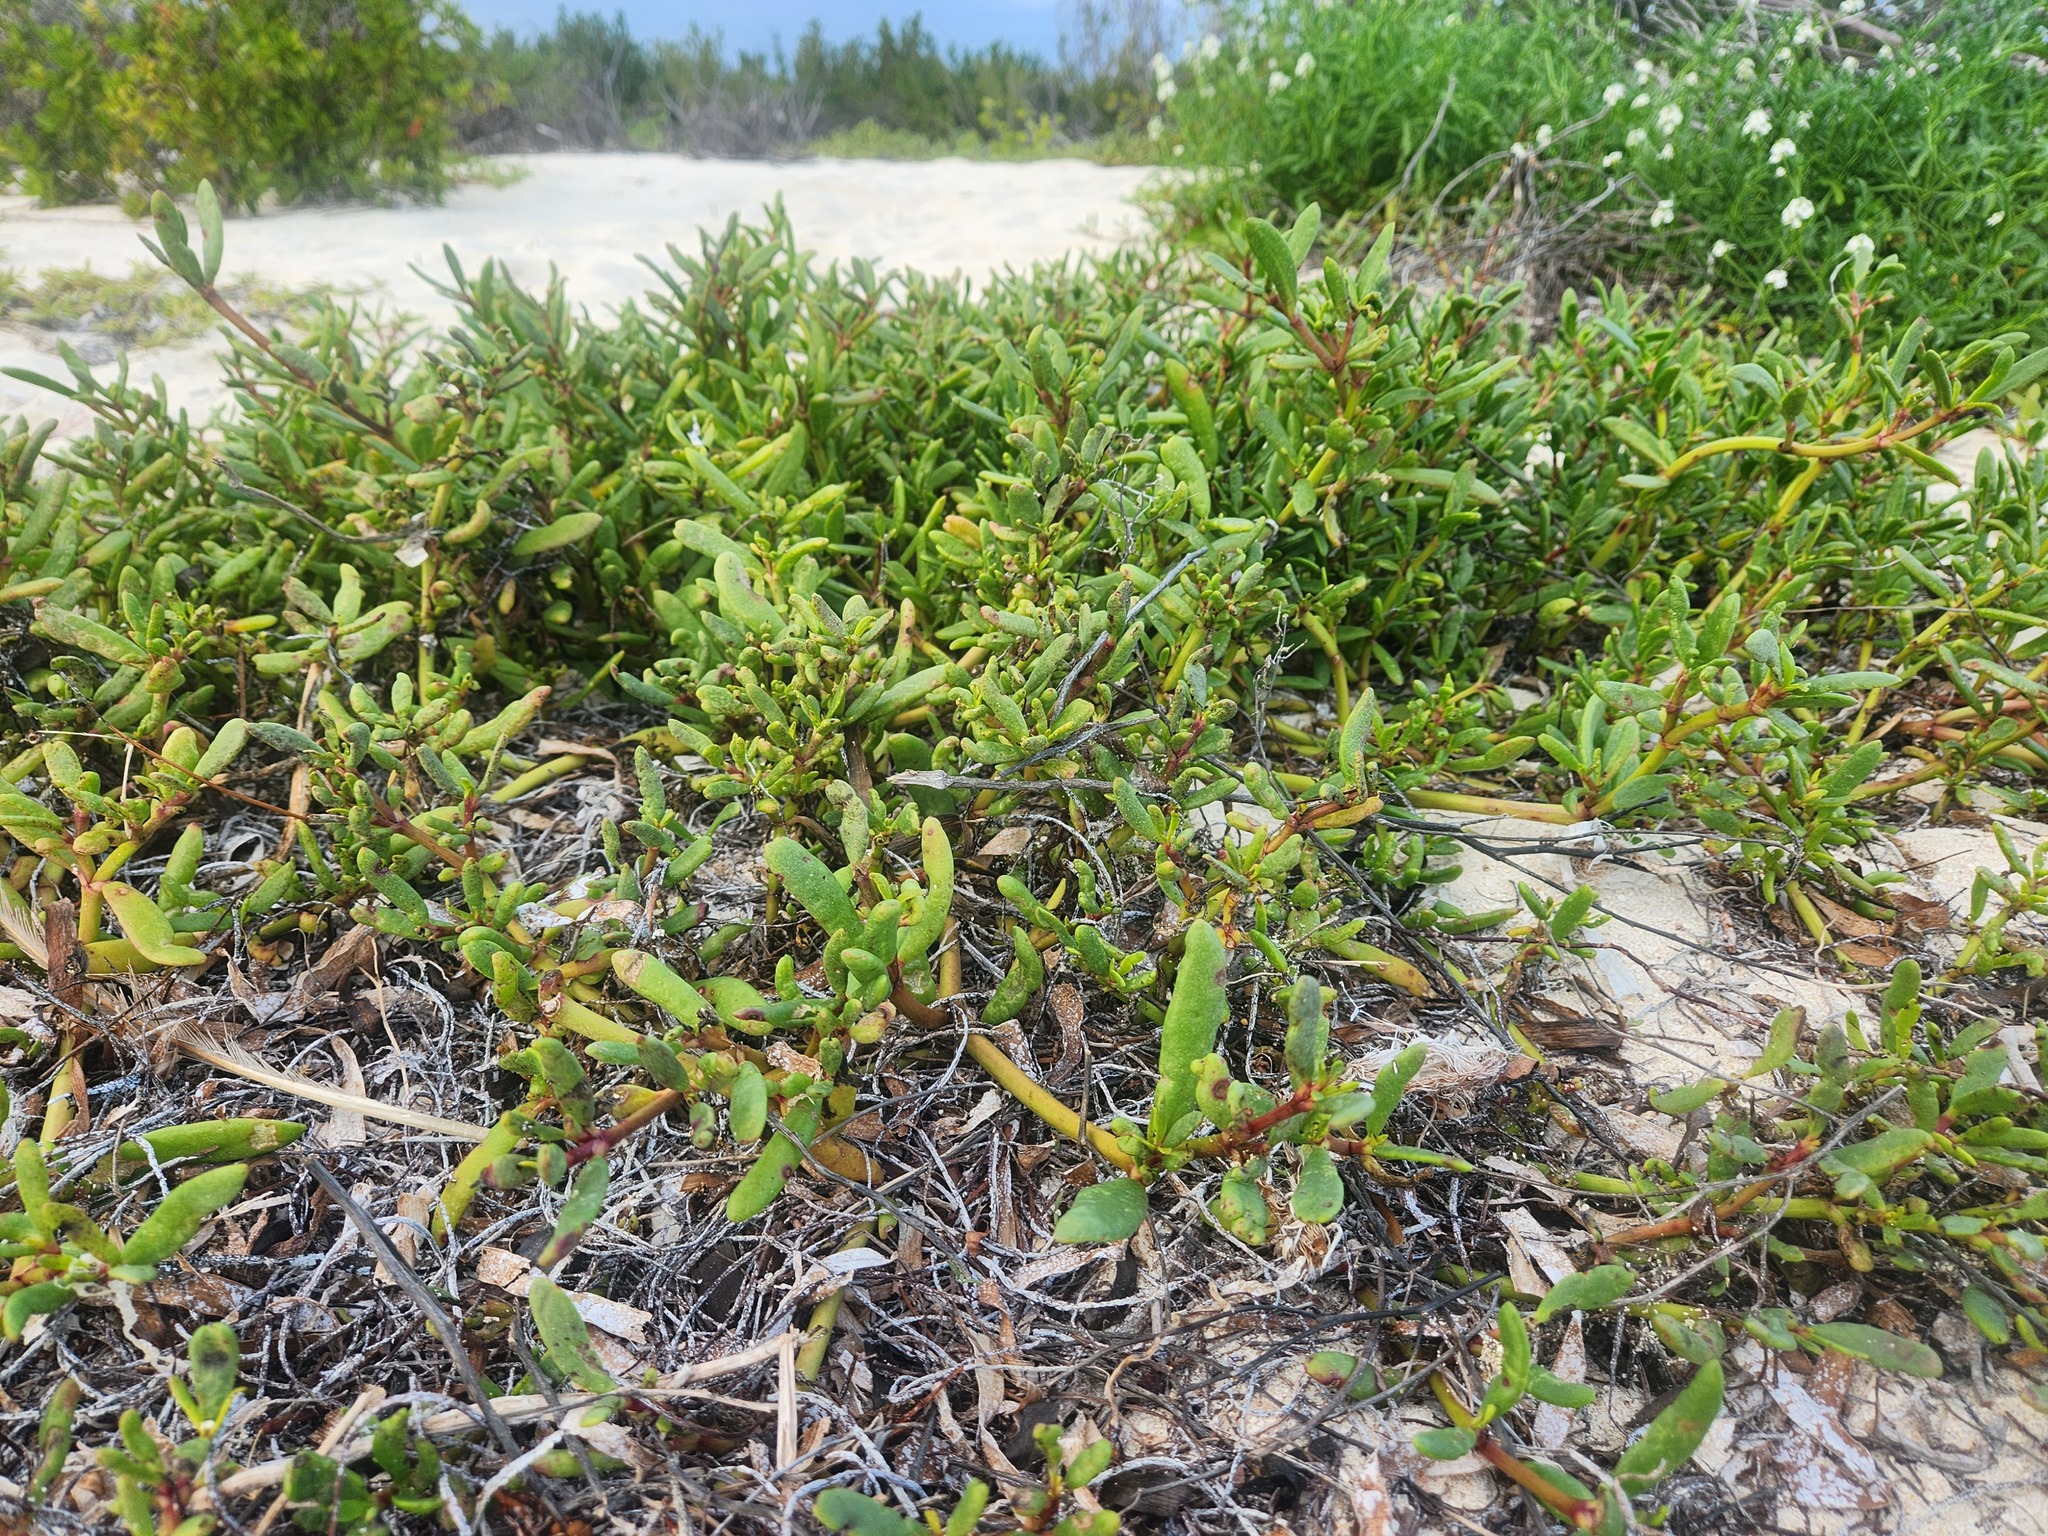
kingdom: Plantae
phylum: Tracheophyta
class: Magnoliopsida
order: Caryophyllales
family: Aizoaceae
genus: Sesuvium
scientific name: Sesuvium portulacastrum
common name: Sea-purslane
